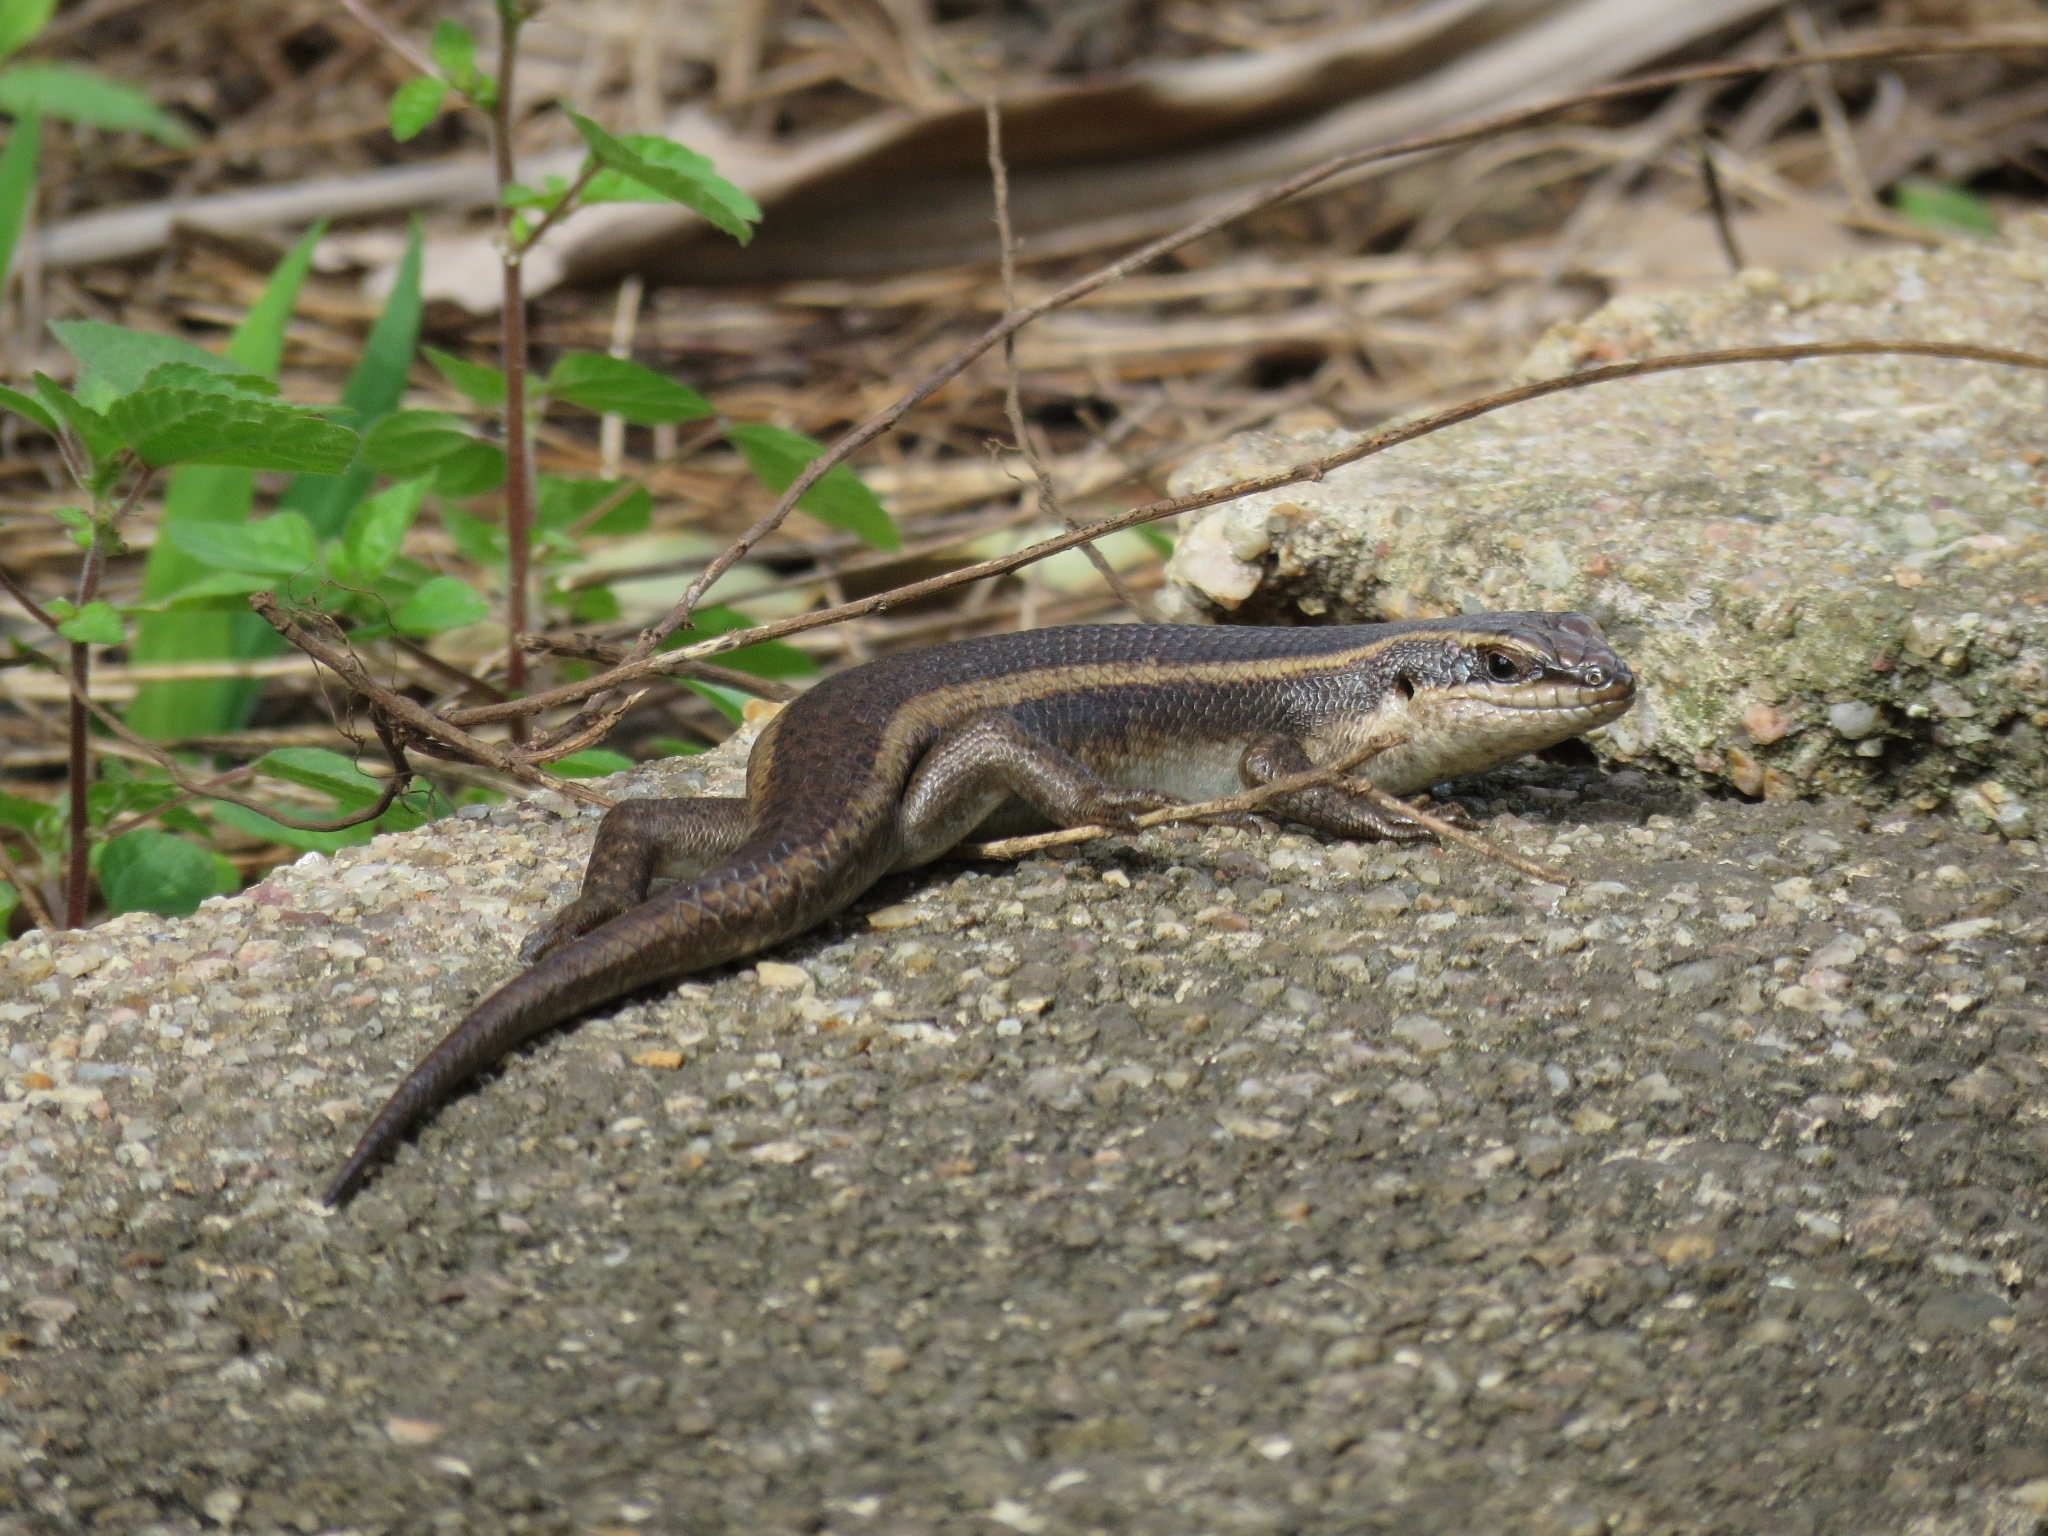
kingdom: Animalia
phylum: Chordata
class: Squamata
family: Scincidae
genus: Trachylepis
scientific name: Trachylepis striata
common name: African striped mabuya
